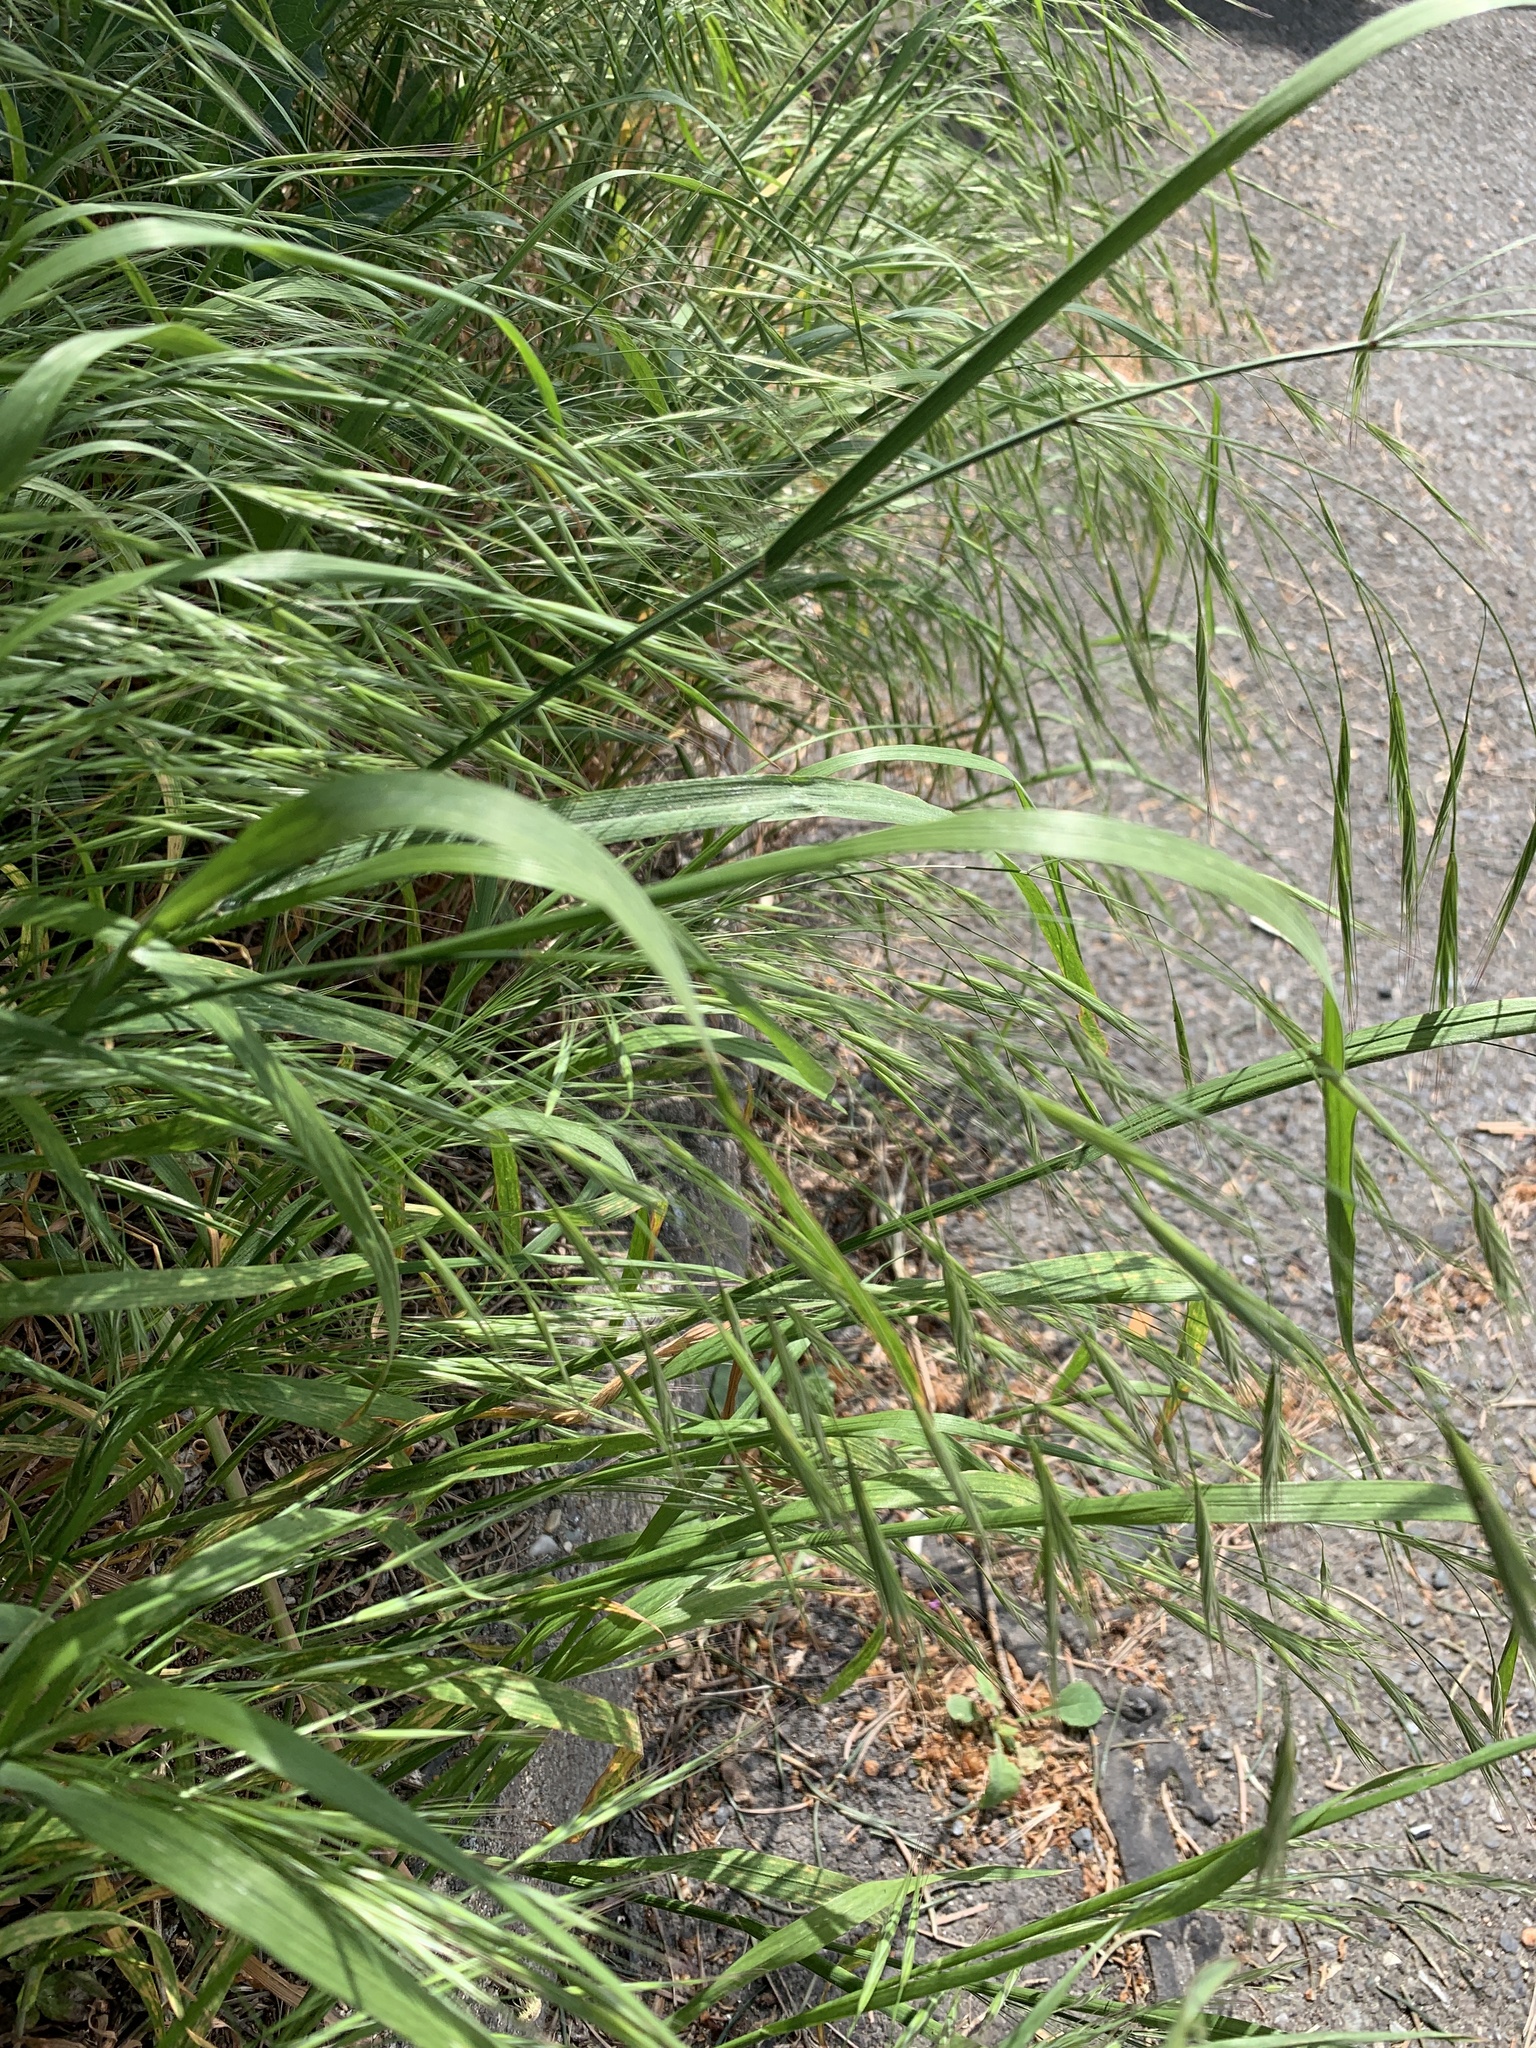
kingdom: Plantae
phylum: Tracheophyta
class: Liliopsida
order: Poales
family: Poaceae
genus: Bromus
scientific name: Bromus sterilis
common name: Poverty brome
